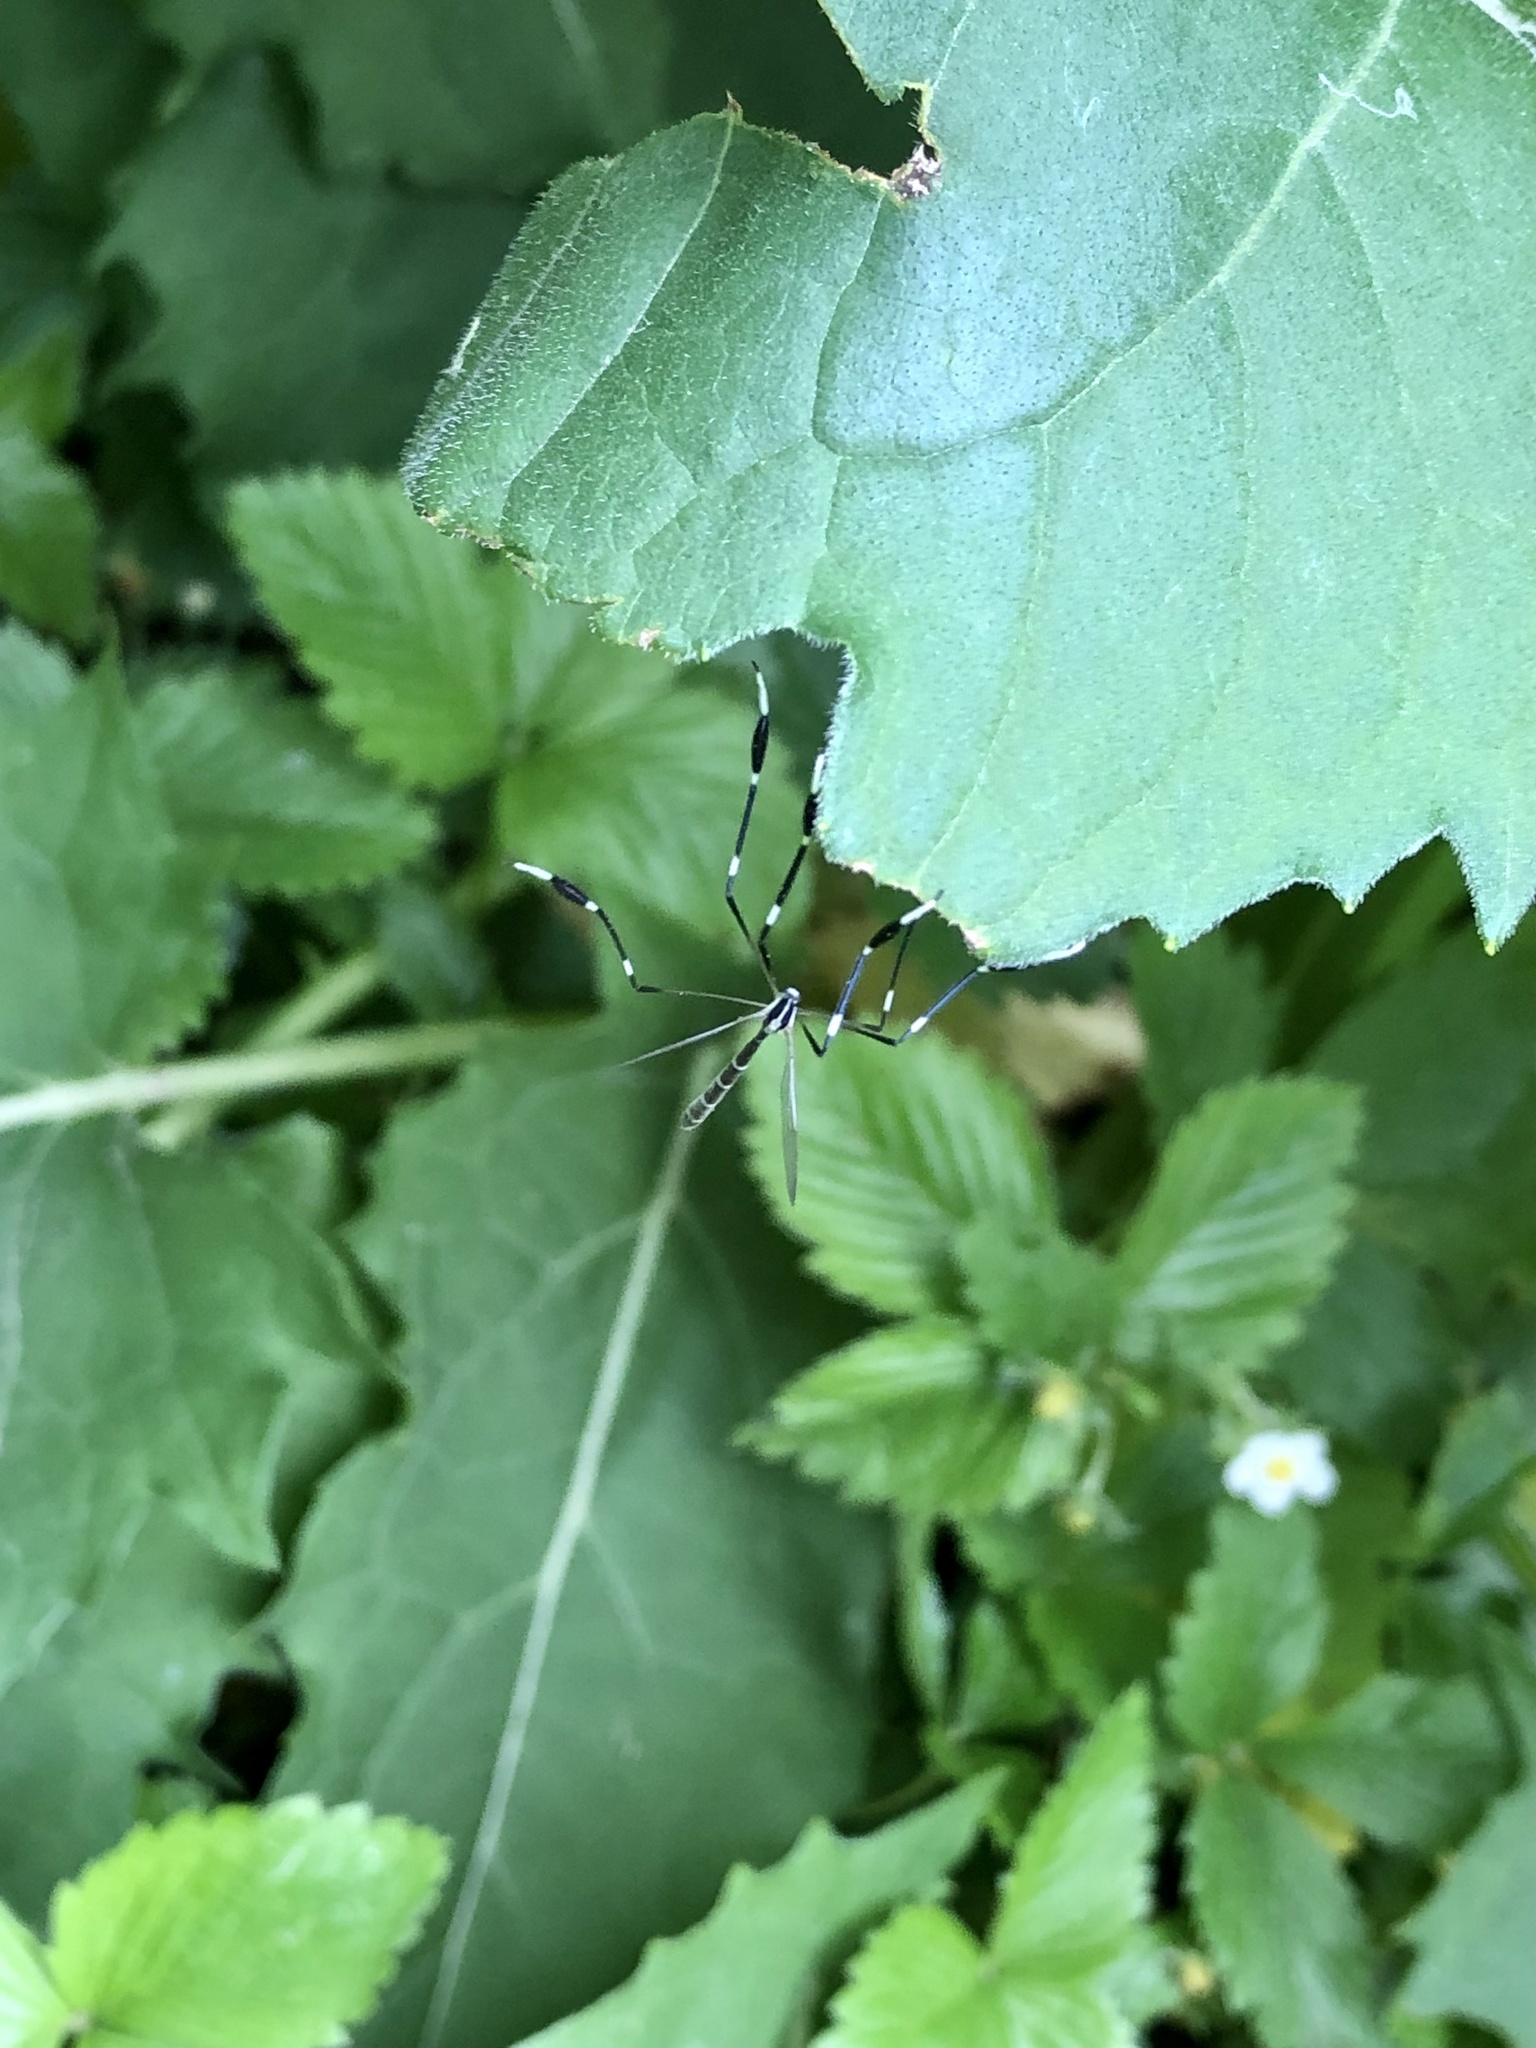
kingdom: Animalia
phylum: Arthropoda
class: Insecta
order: Diptera
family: Ptychopteridae
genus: Bittacomorpha
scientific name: Bittacomorpha clavipes
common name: Eastern phantom crane fly
